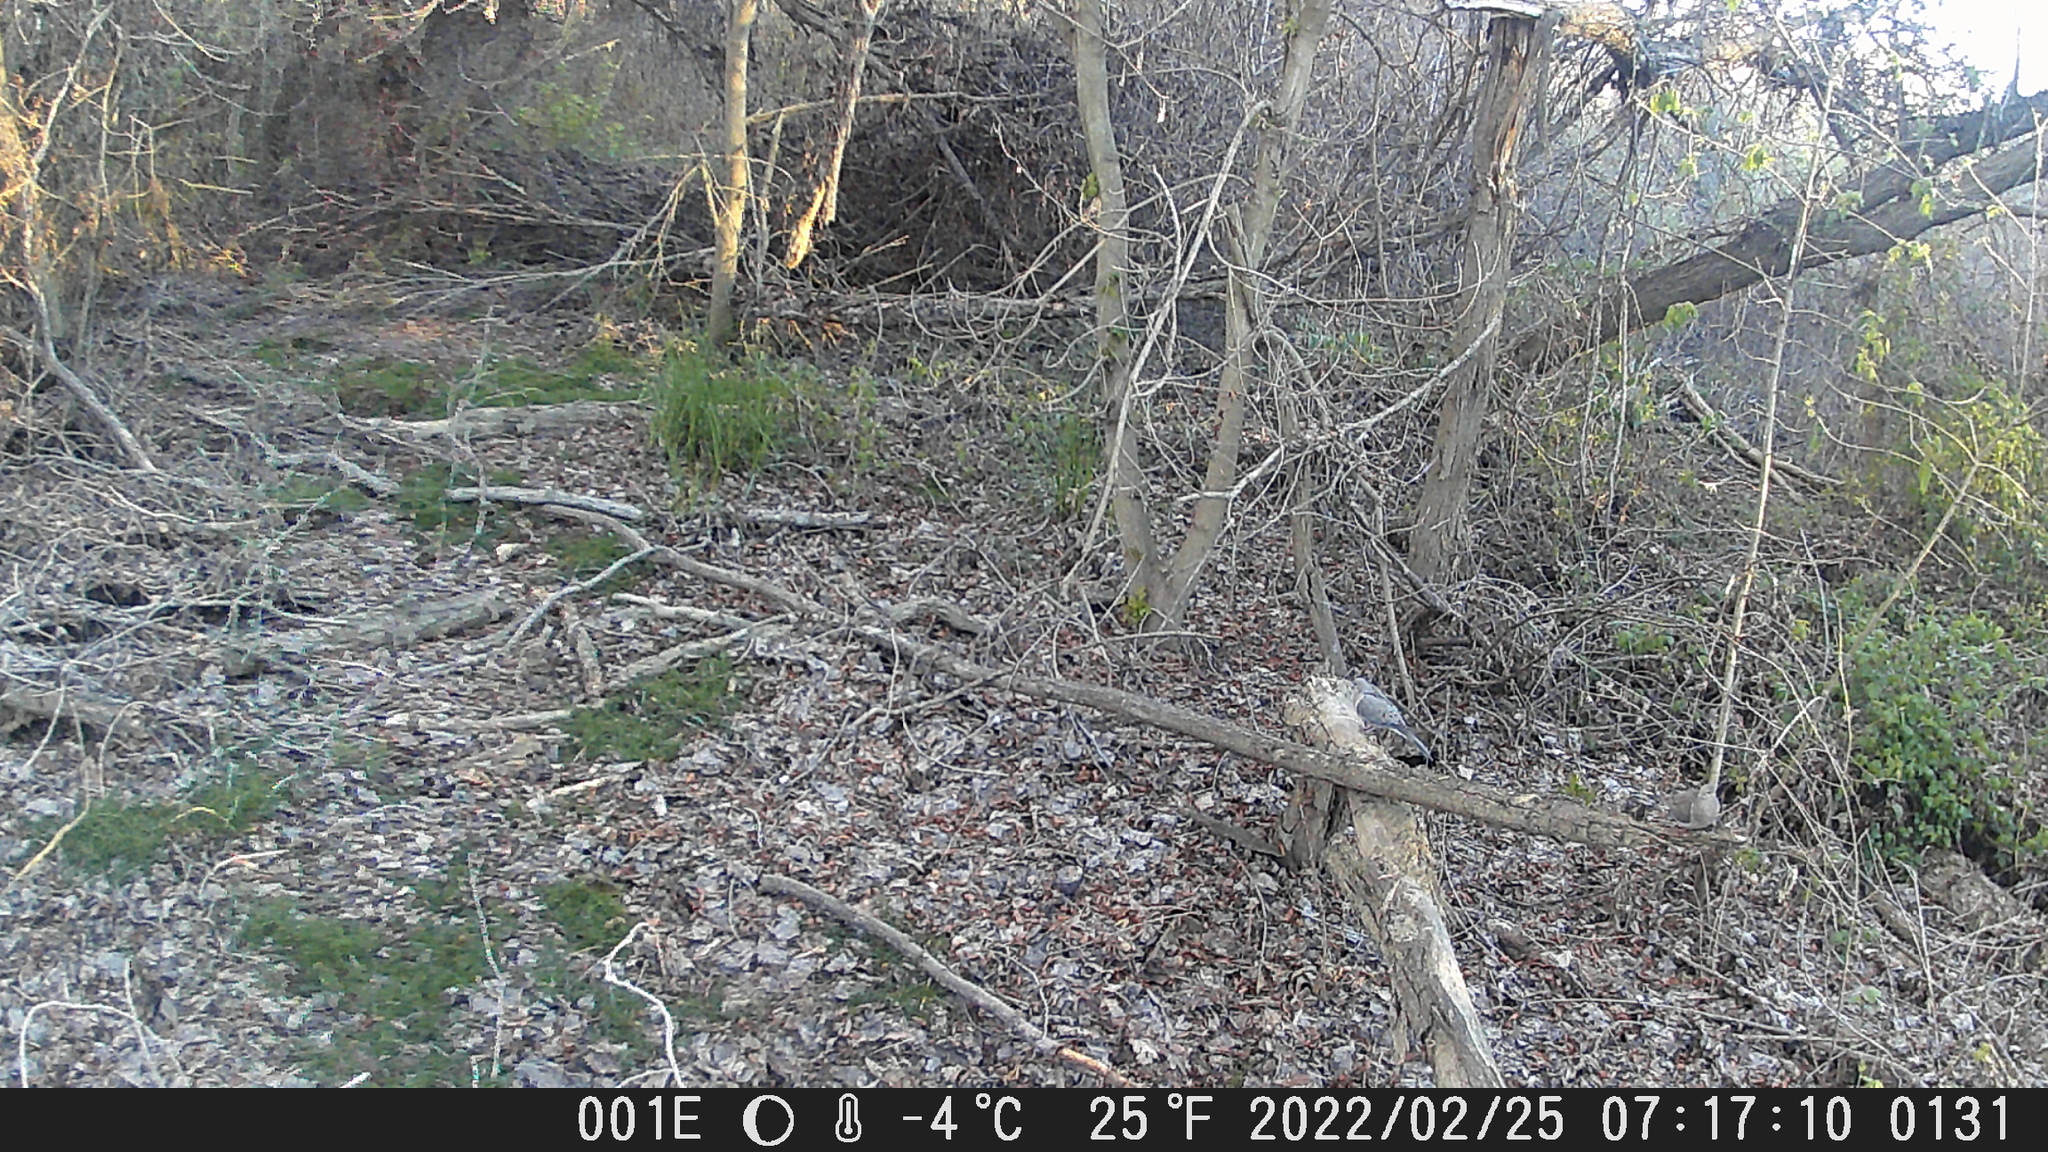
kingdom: Animalia
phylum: Chordata
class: Aves
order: Columbiformes
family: Columbidae
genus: Zenaida
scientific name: Zenaida macroura
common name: Mourning dove
